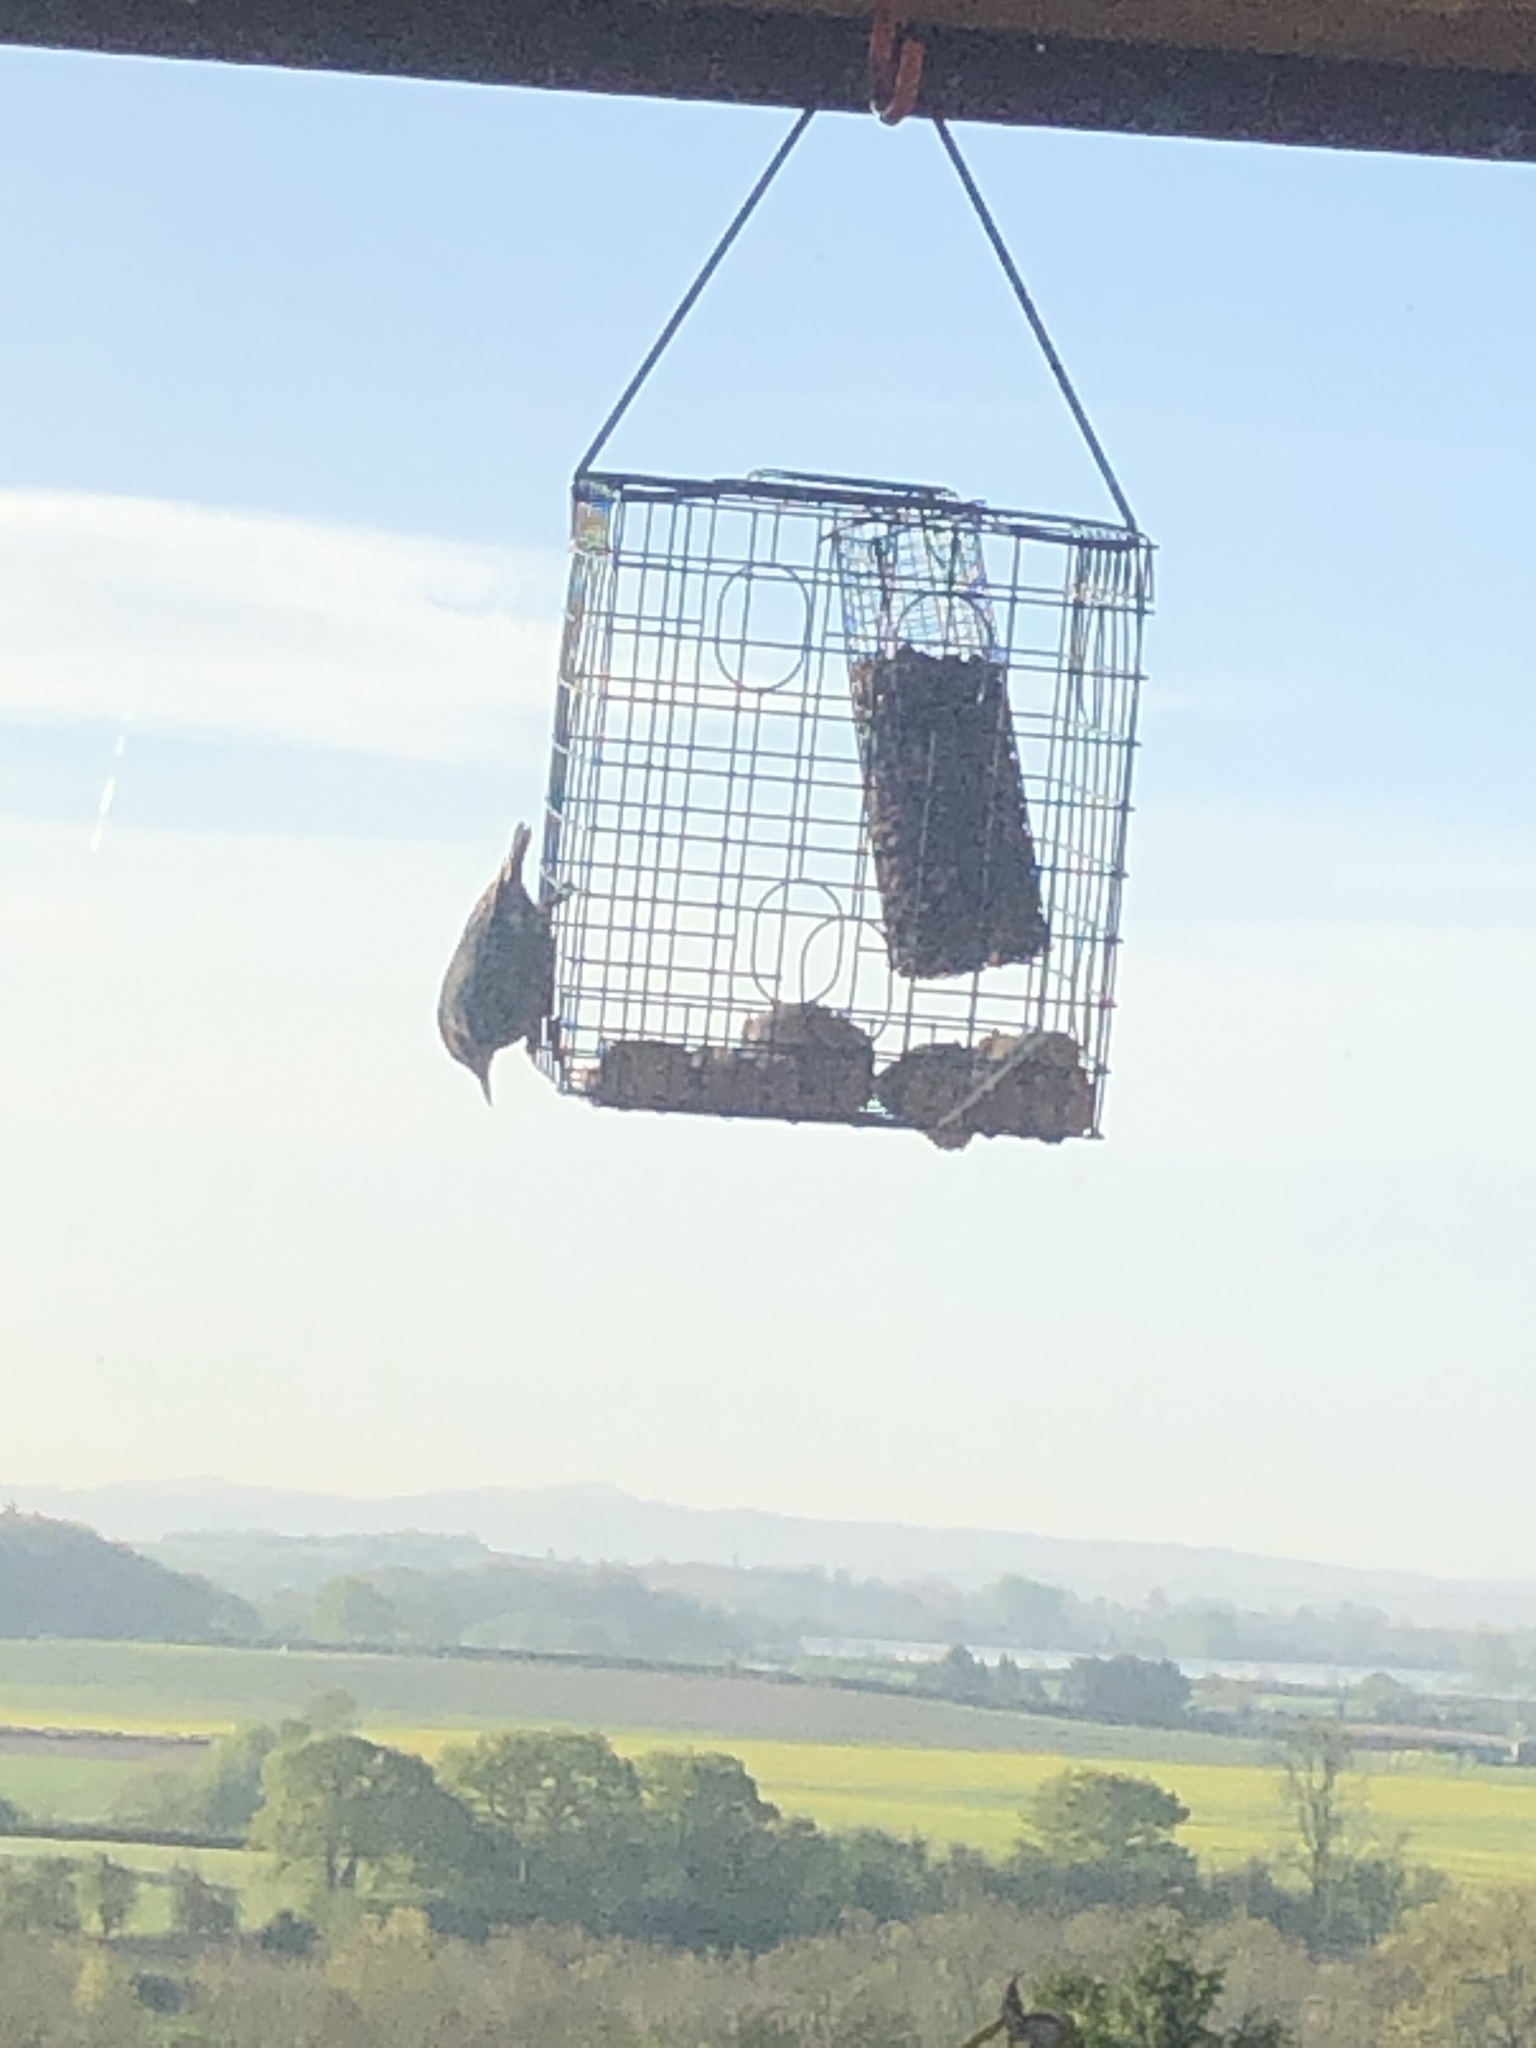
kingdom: Animalia
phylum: Chordata
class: Aves
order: Passeriformes
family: Sittidae
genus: Sitta
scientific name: Sitta europaea
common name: Eurasian nuthatch
